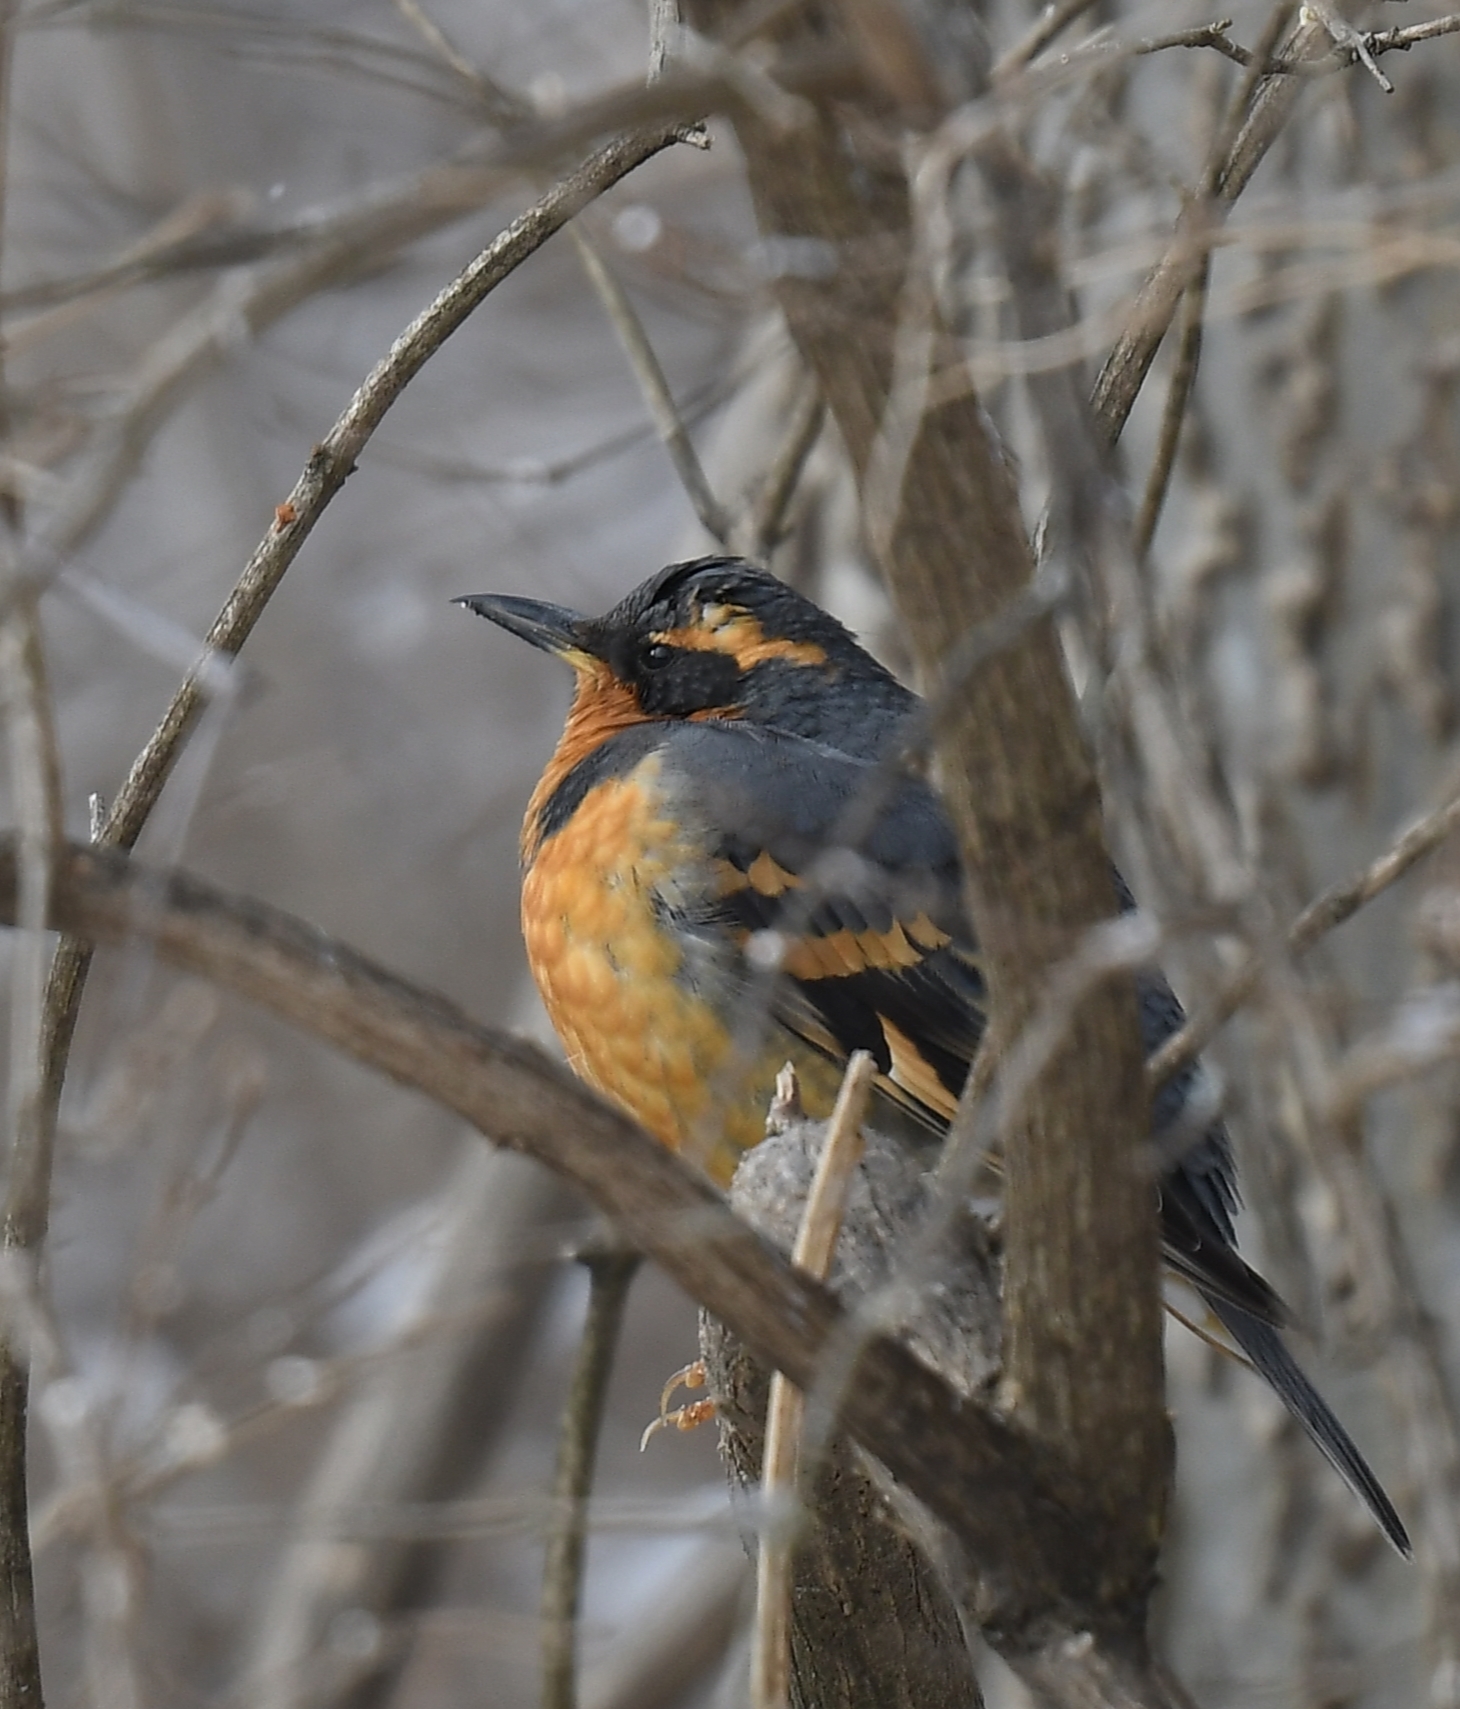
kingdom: Animalia
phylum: Chordata
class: Aves
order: Passeriformes
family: Turdidae
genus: Ixoreus
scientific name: Ixoreus naevius
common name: Varied thrush
